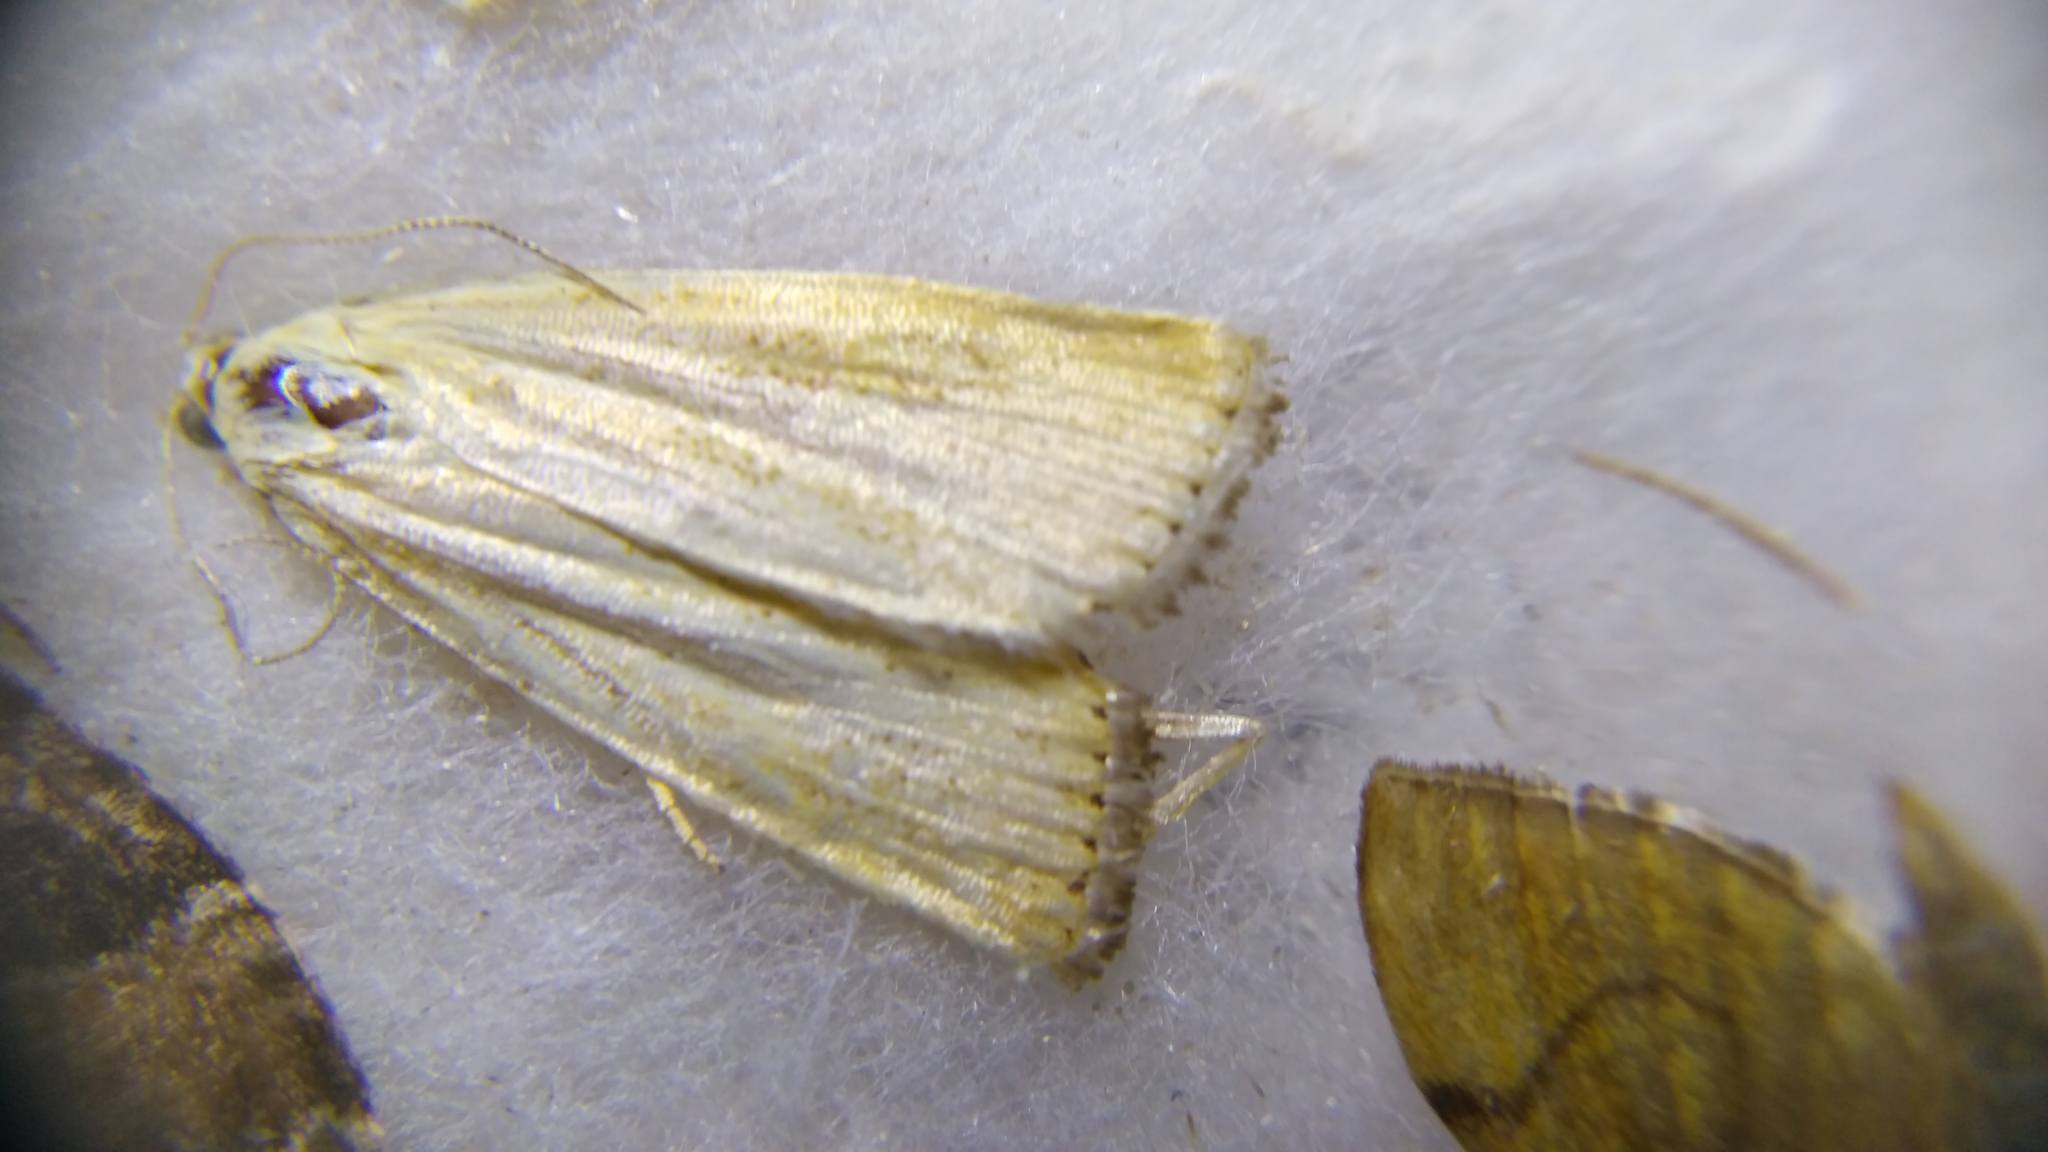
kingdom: Animalia
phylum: Arthropoda
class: Insecta
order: Lepidoptera
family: Crambidae
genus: Agriphila
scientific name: Agriphila straminella
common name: Straw grass-veneer
